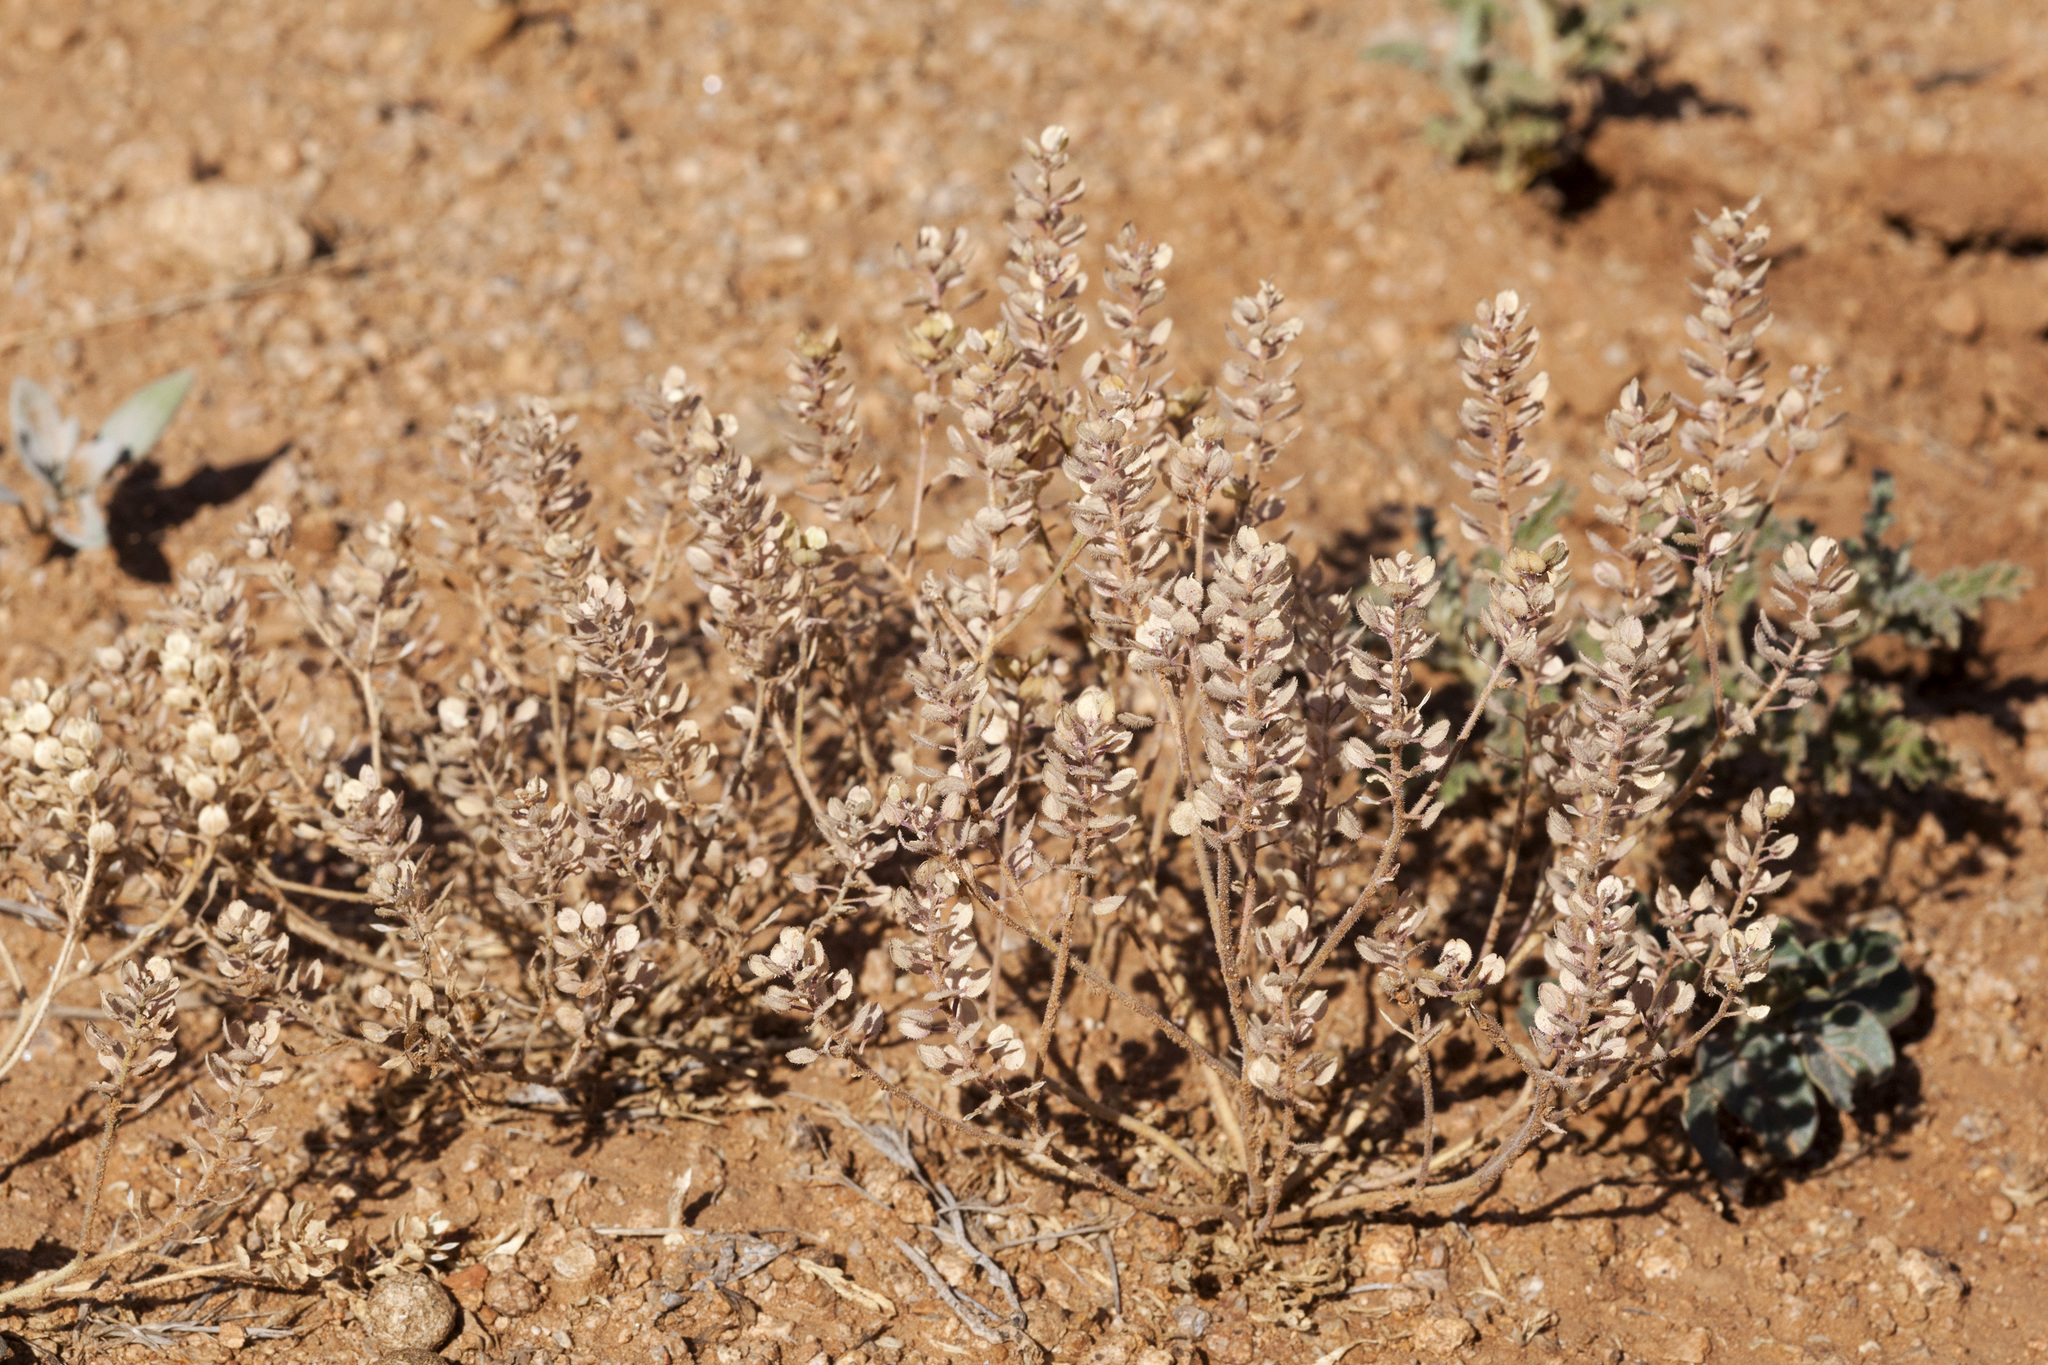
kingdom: Plantae
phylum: Tracheophyta
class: Magnoliopsida
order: Brassicales
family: Brassicaceae
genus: Lepidium
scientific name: Lepidium lasiocarpum
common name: Hairy-pod pepperwort
